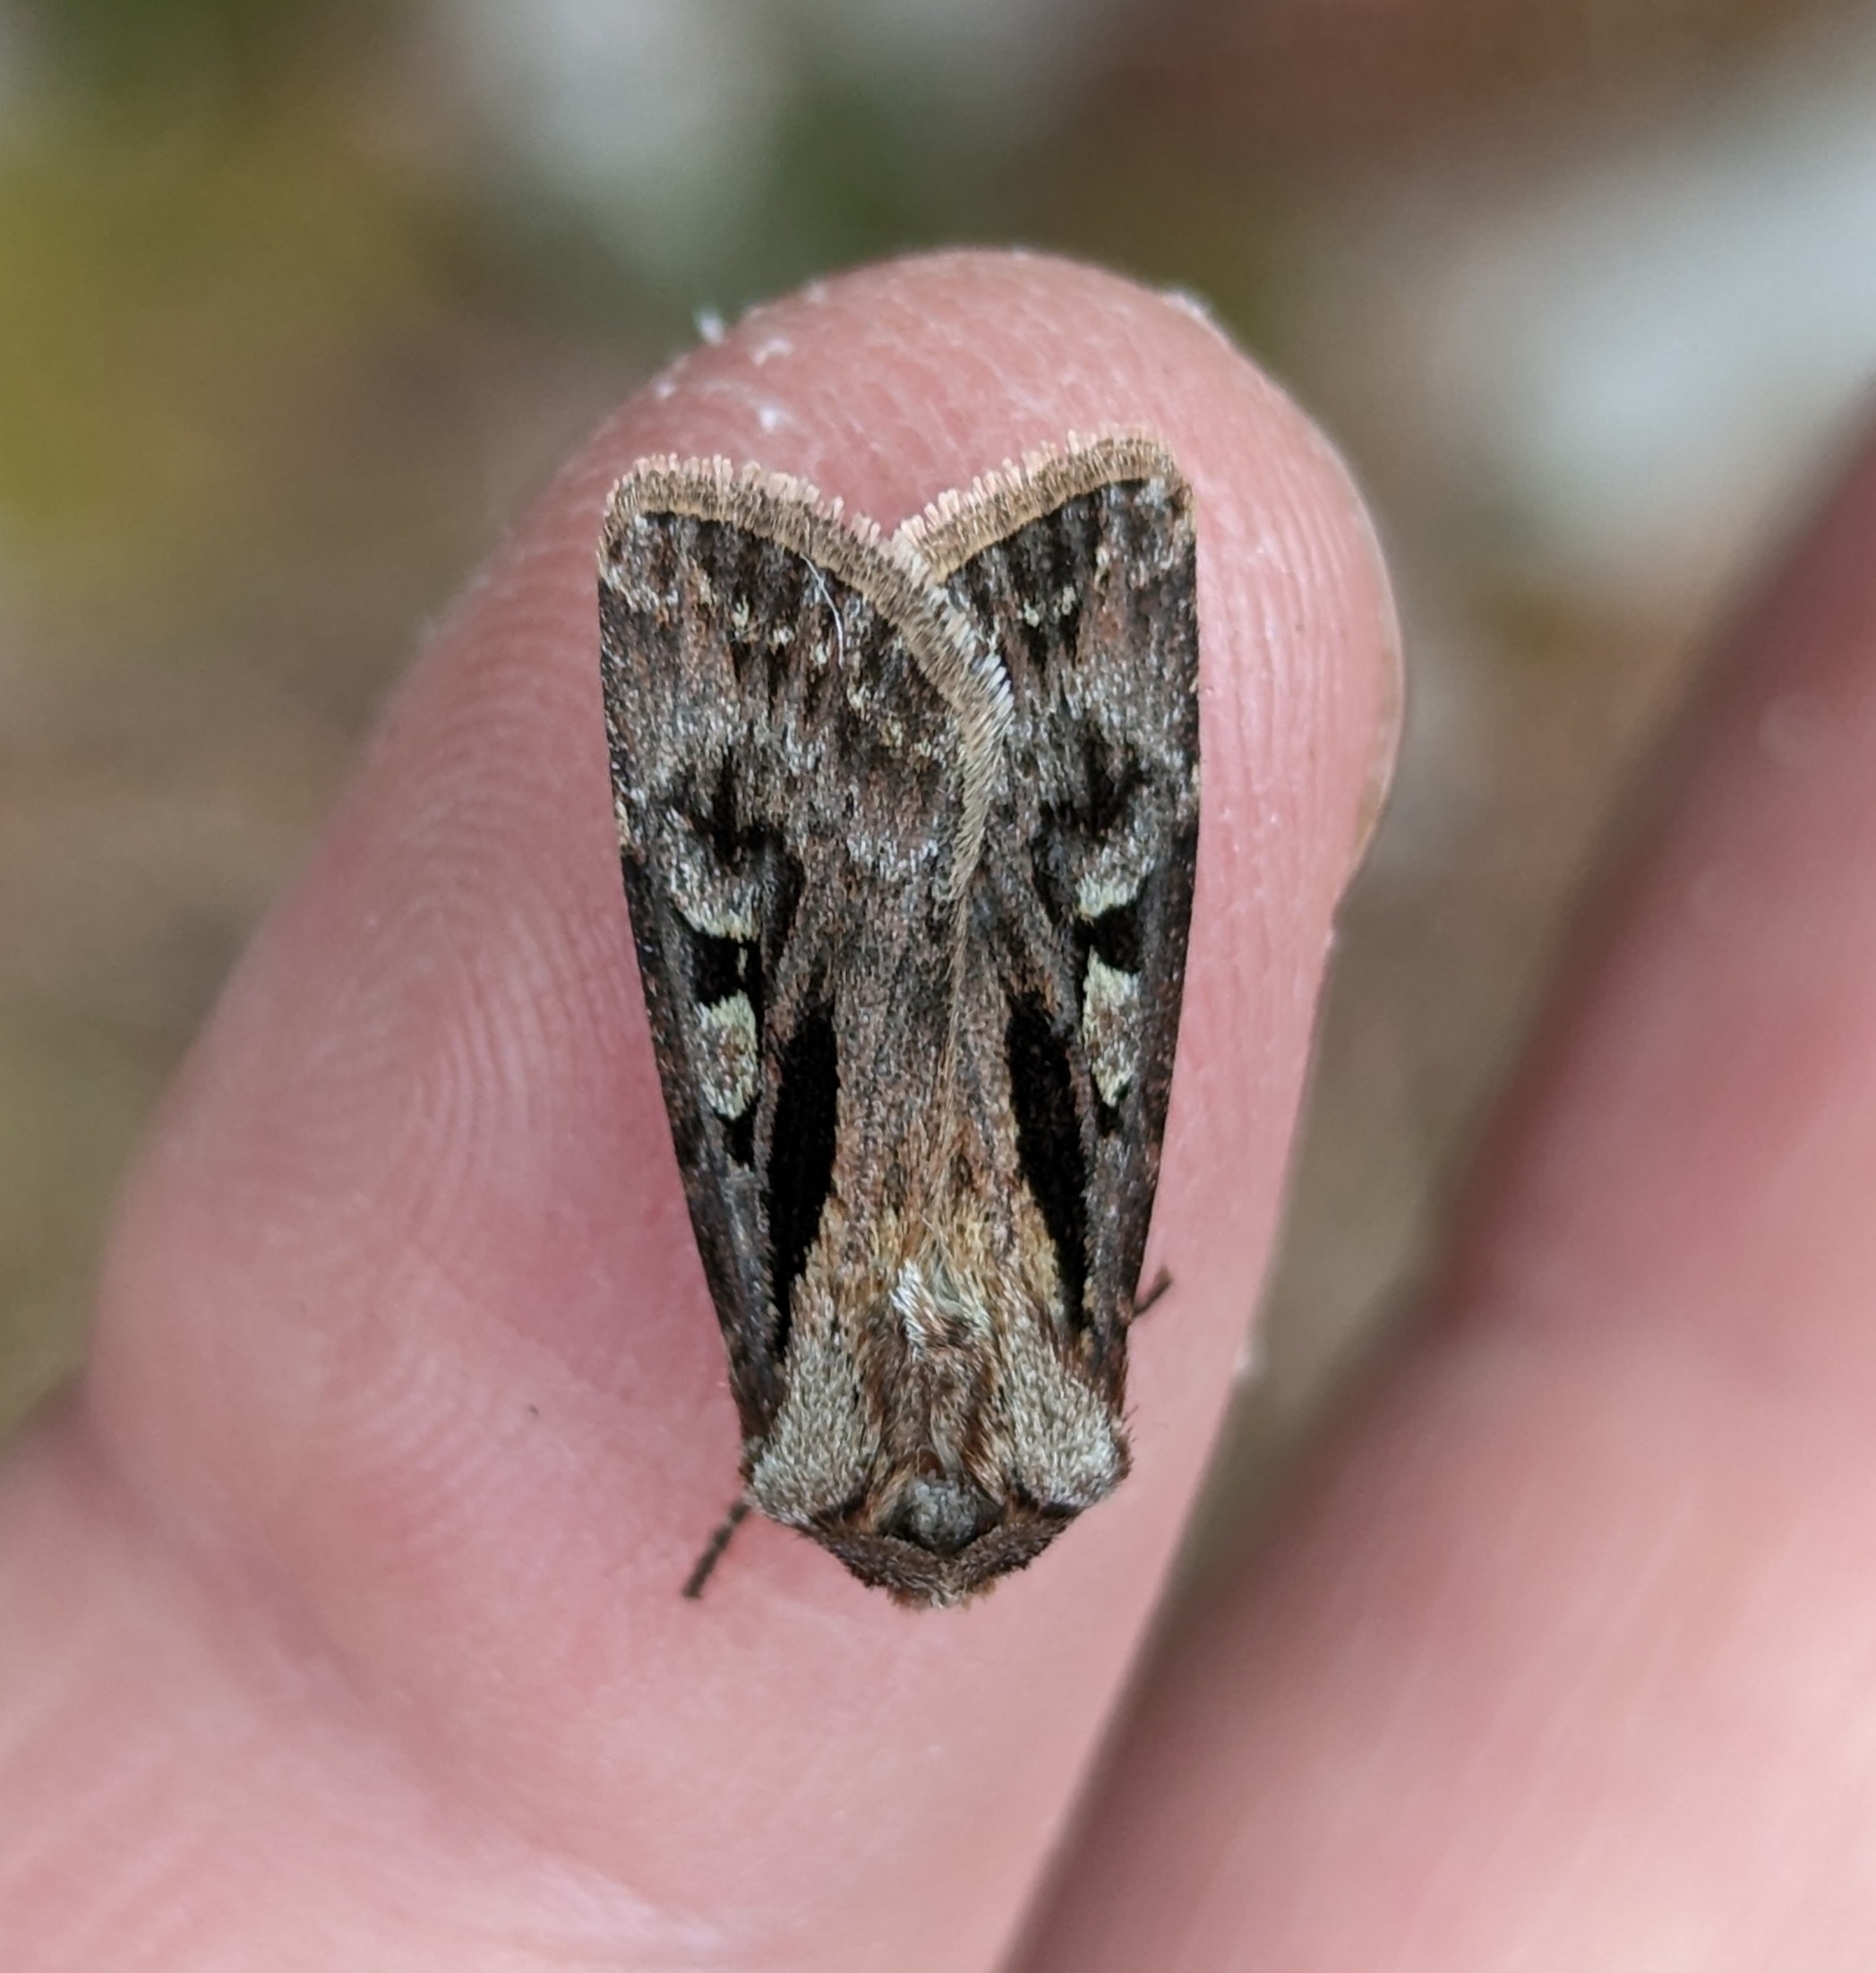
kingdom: Animalia
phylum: Arthropoda
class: Insecta
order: Lepidoptera
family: Noctuidae
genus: Agrotis
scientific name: Agrotis vancouverensis
